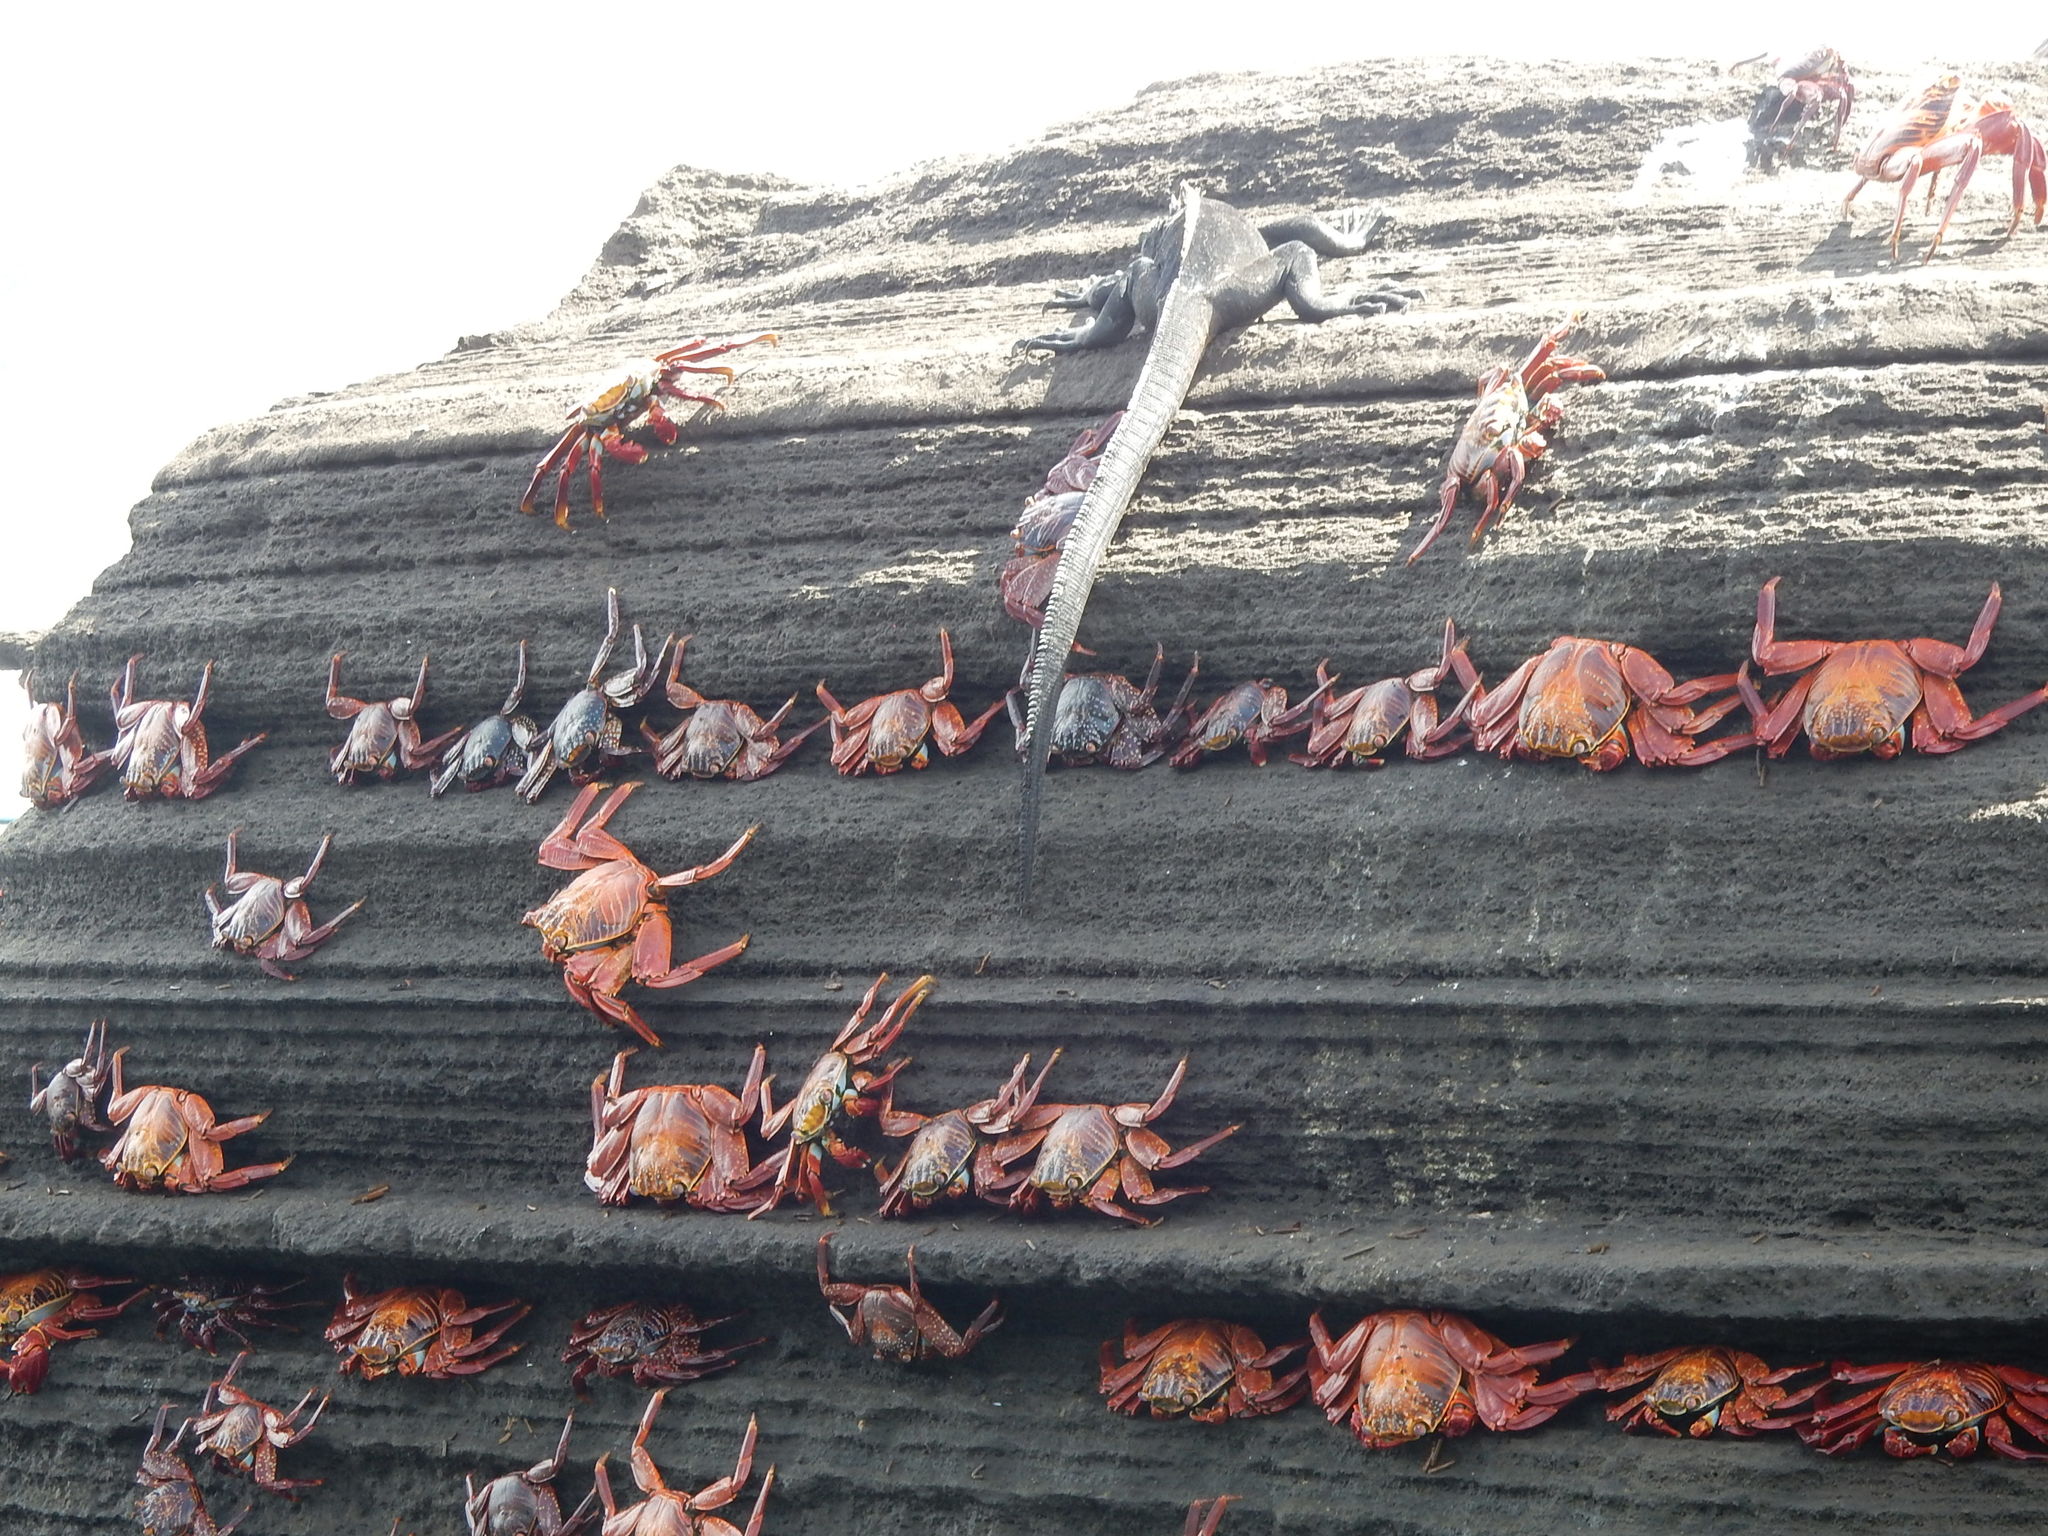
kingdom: Animalia
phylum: Arthropoda
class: Malacostraca
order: Decapoda
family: Grapsidae
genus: Grapsus
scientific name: Grapsus grapsus
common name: Sally lightfoot
